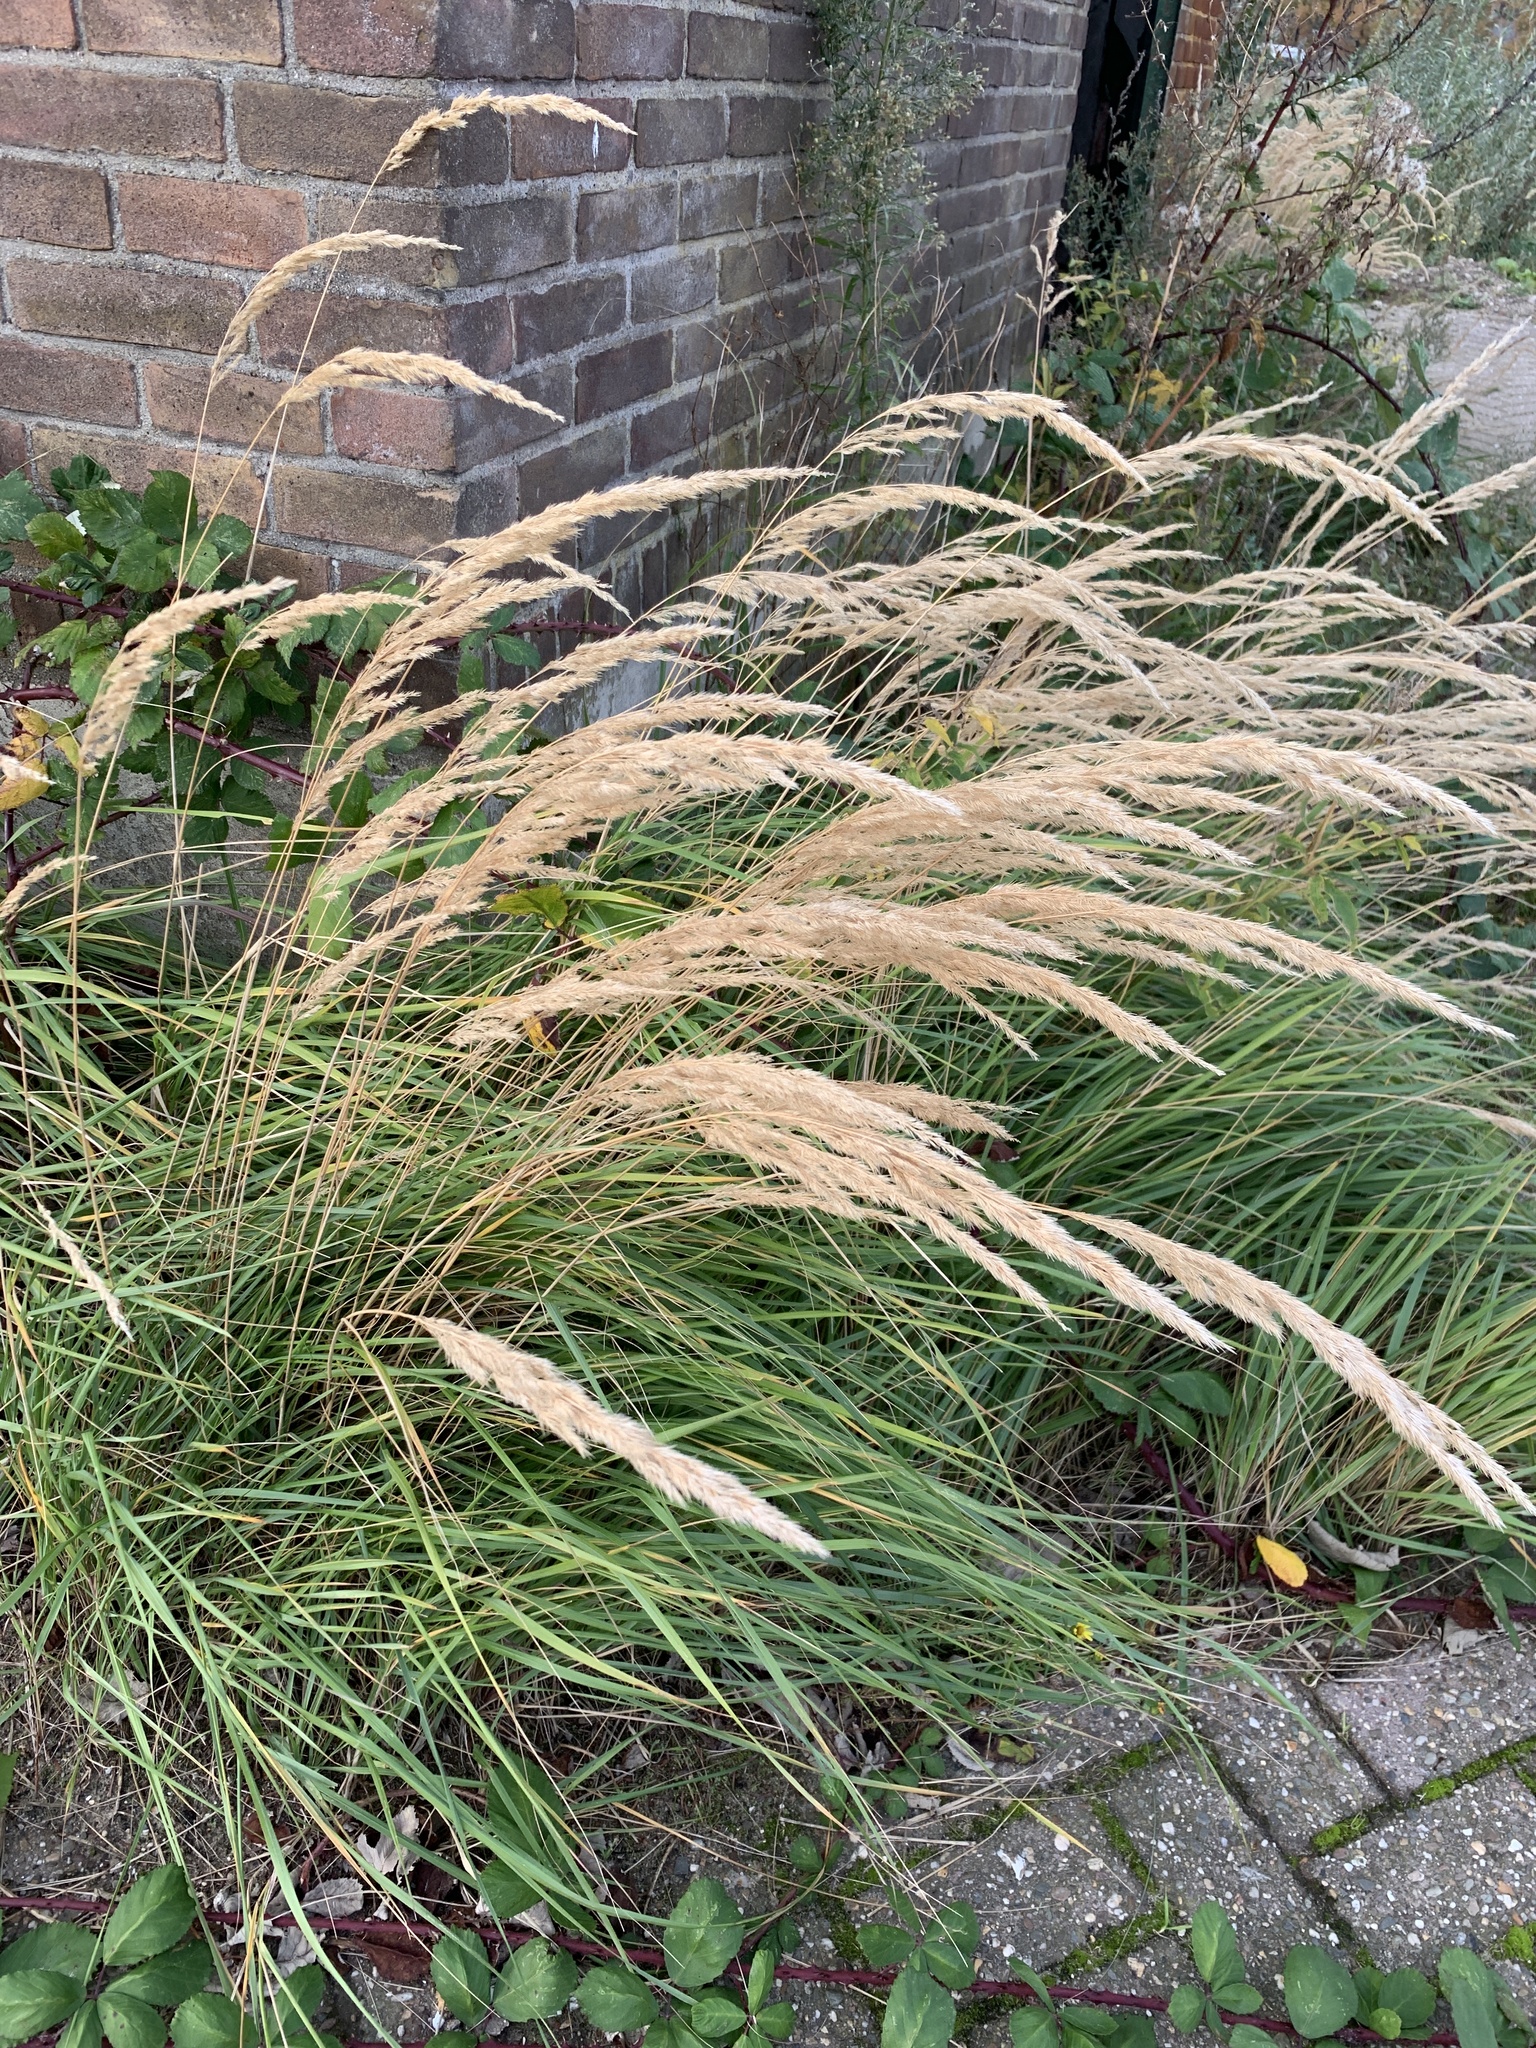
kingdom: Plantae
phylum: Tracheophyta
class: Liliopsida
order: Poales
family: Poaceae
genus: Calamagrostis
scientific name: Calamagrostis epigejos
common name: Wood small-reed
